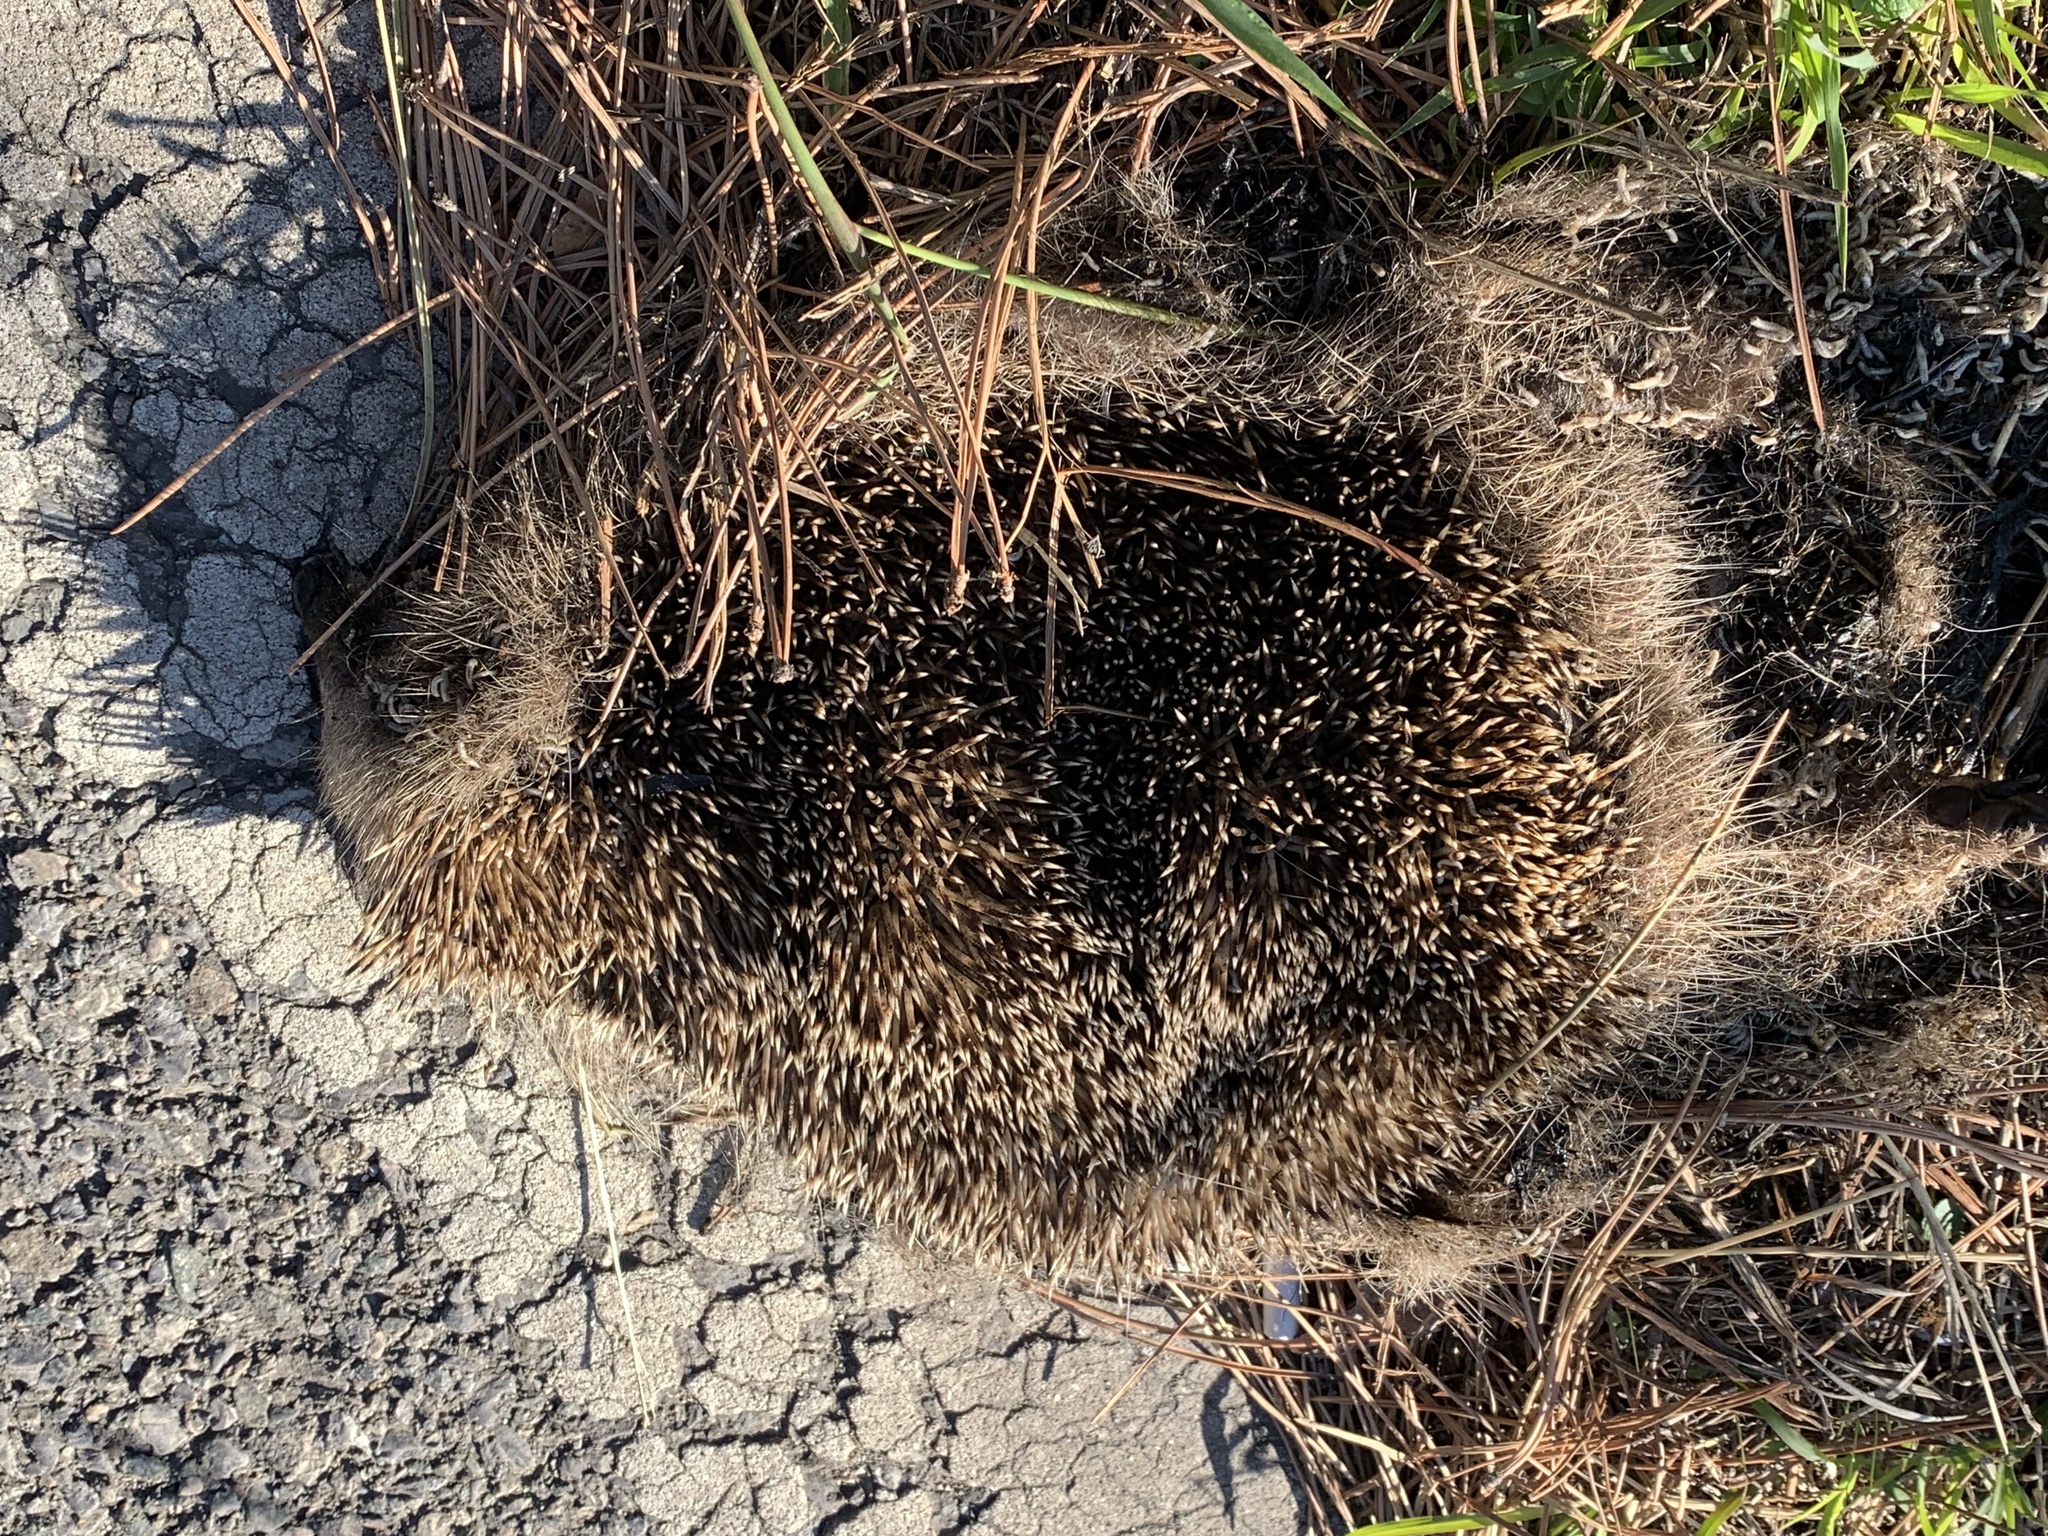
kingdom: Animalia
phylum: Chordata
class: Mammalia
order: Erinaceomorpha
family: Erinaceidae
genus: Erinaceus
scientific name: Erinaceus roumanicus
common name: Northern white-breasted hedgehog
